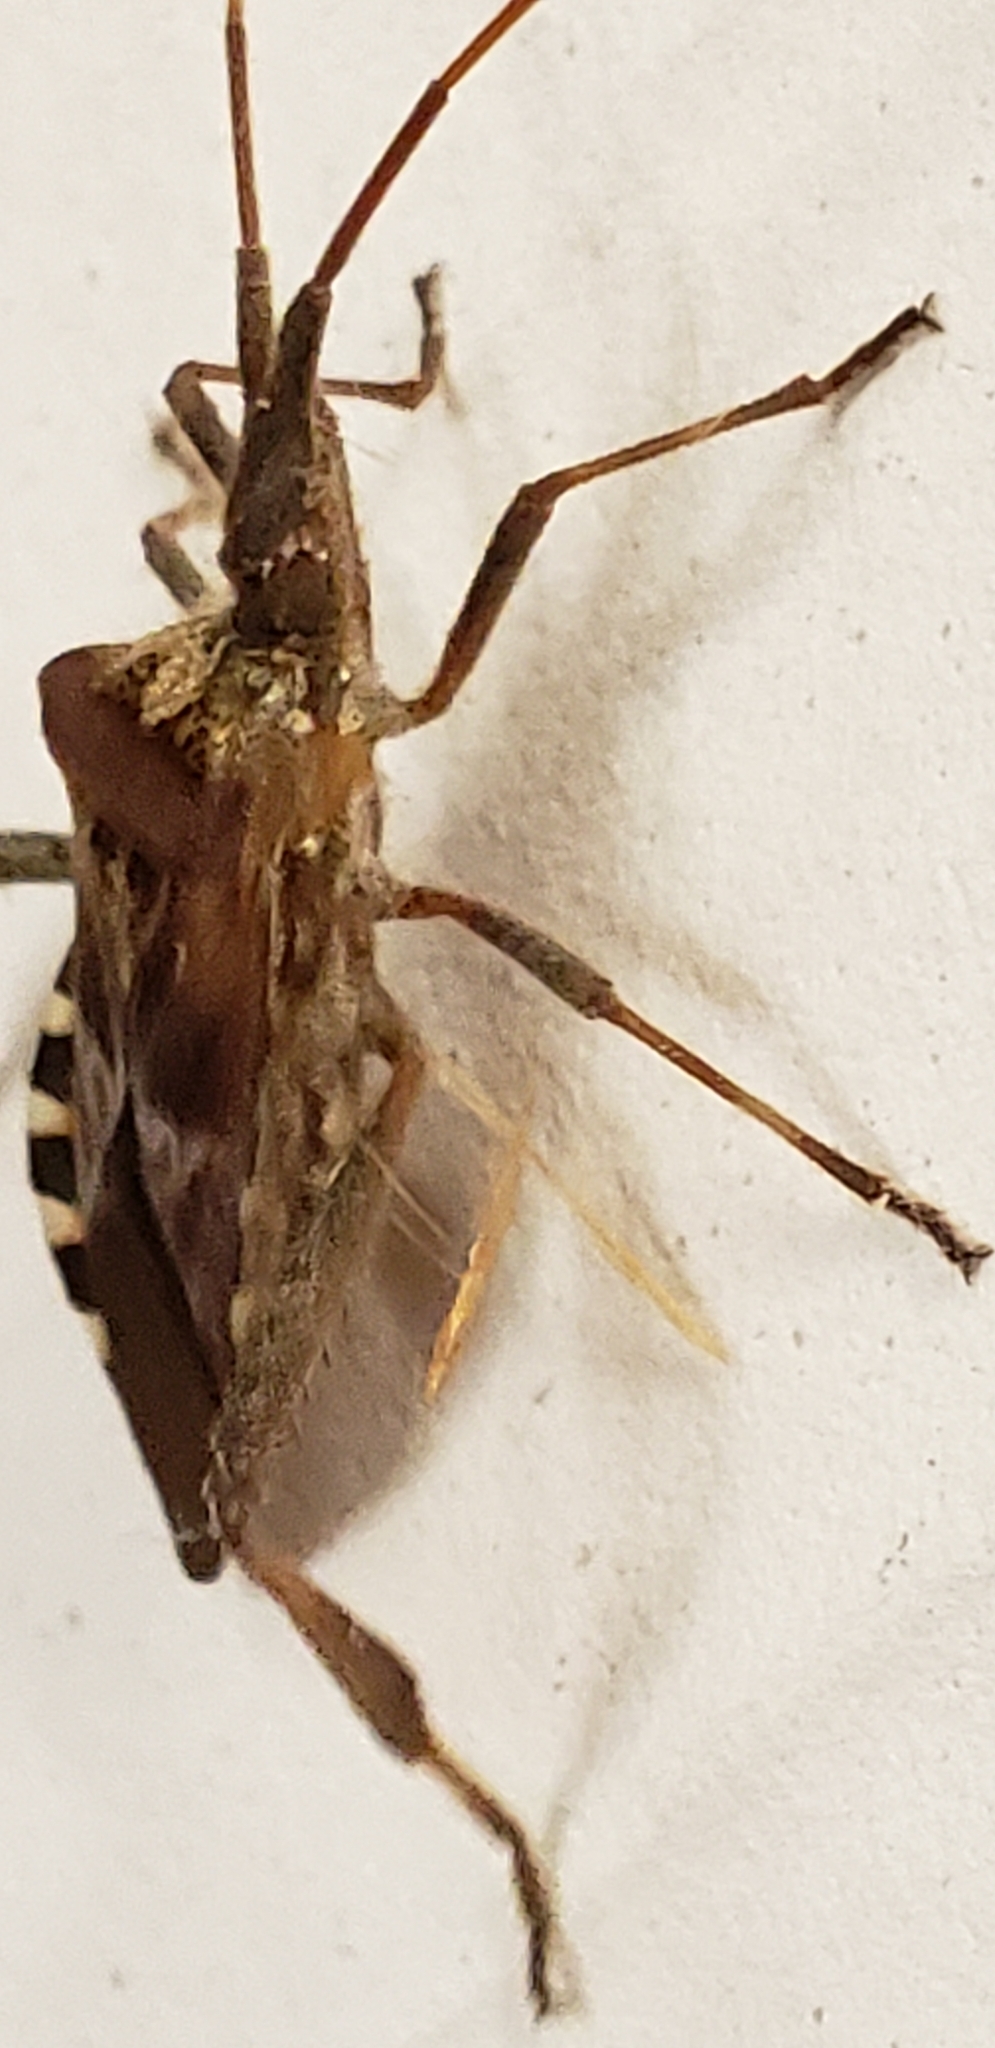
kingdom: Animalia
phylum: Arthropoda
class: Insecta
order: Hemiptera
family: Coreidae
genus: Leptoglossus
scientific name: Leptoglossus occidentalis
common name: Western conifer-seed bug
